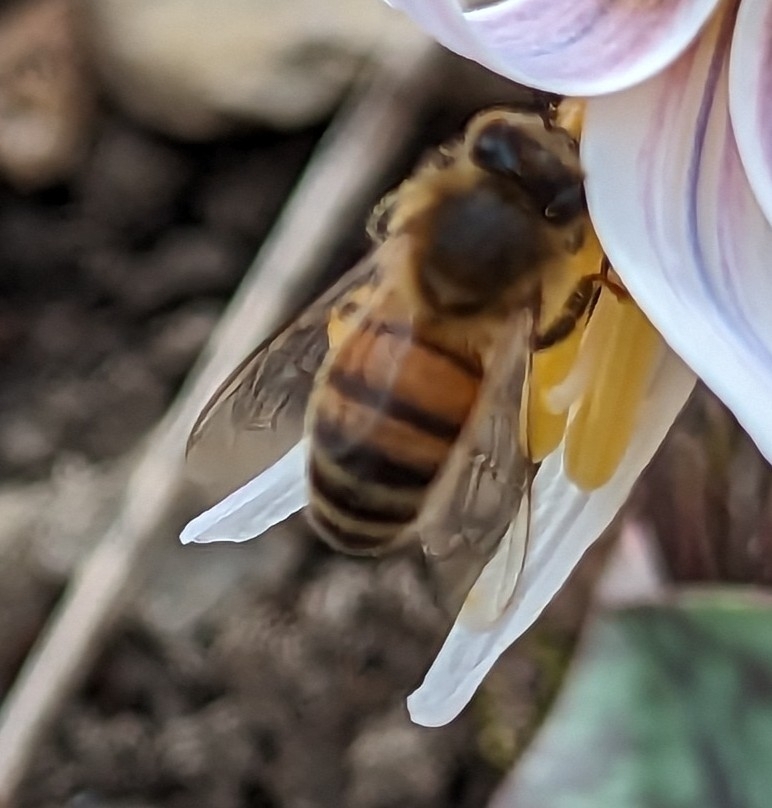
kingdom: Animalia
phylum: Arthropoda
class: Insecta
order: Hymenoptera
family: Apidae
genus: Apis
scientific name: Apis mellifera
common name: Honey bee
